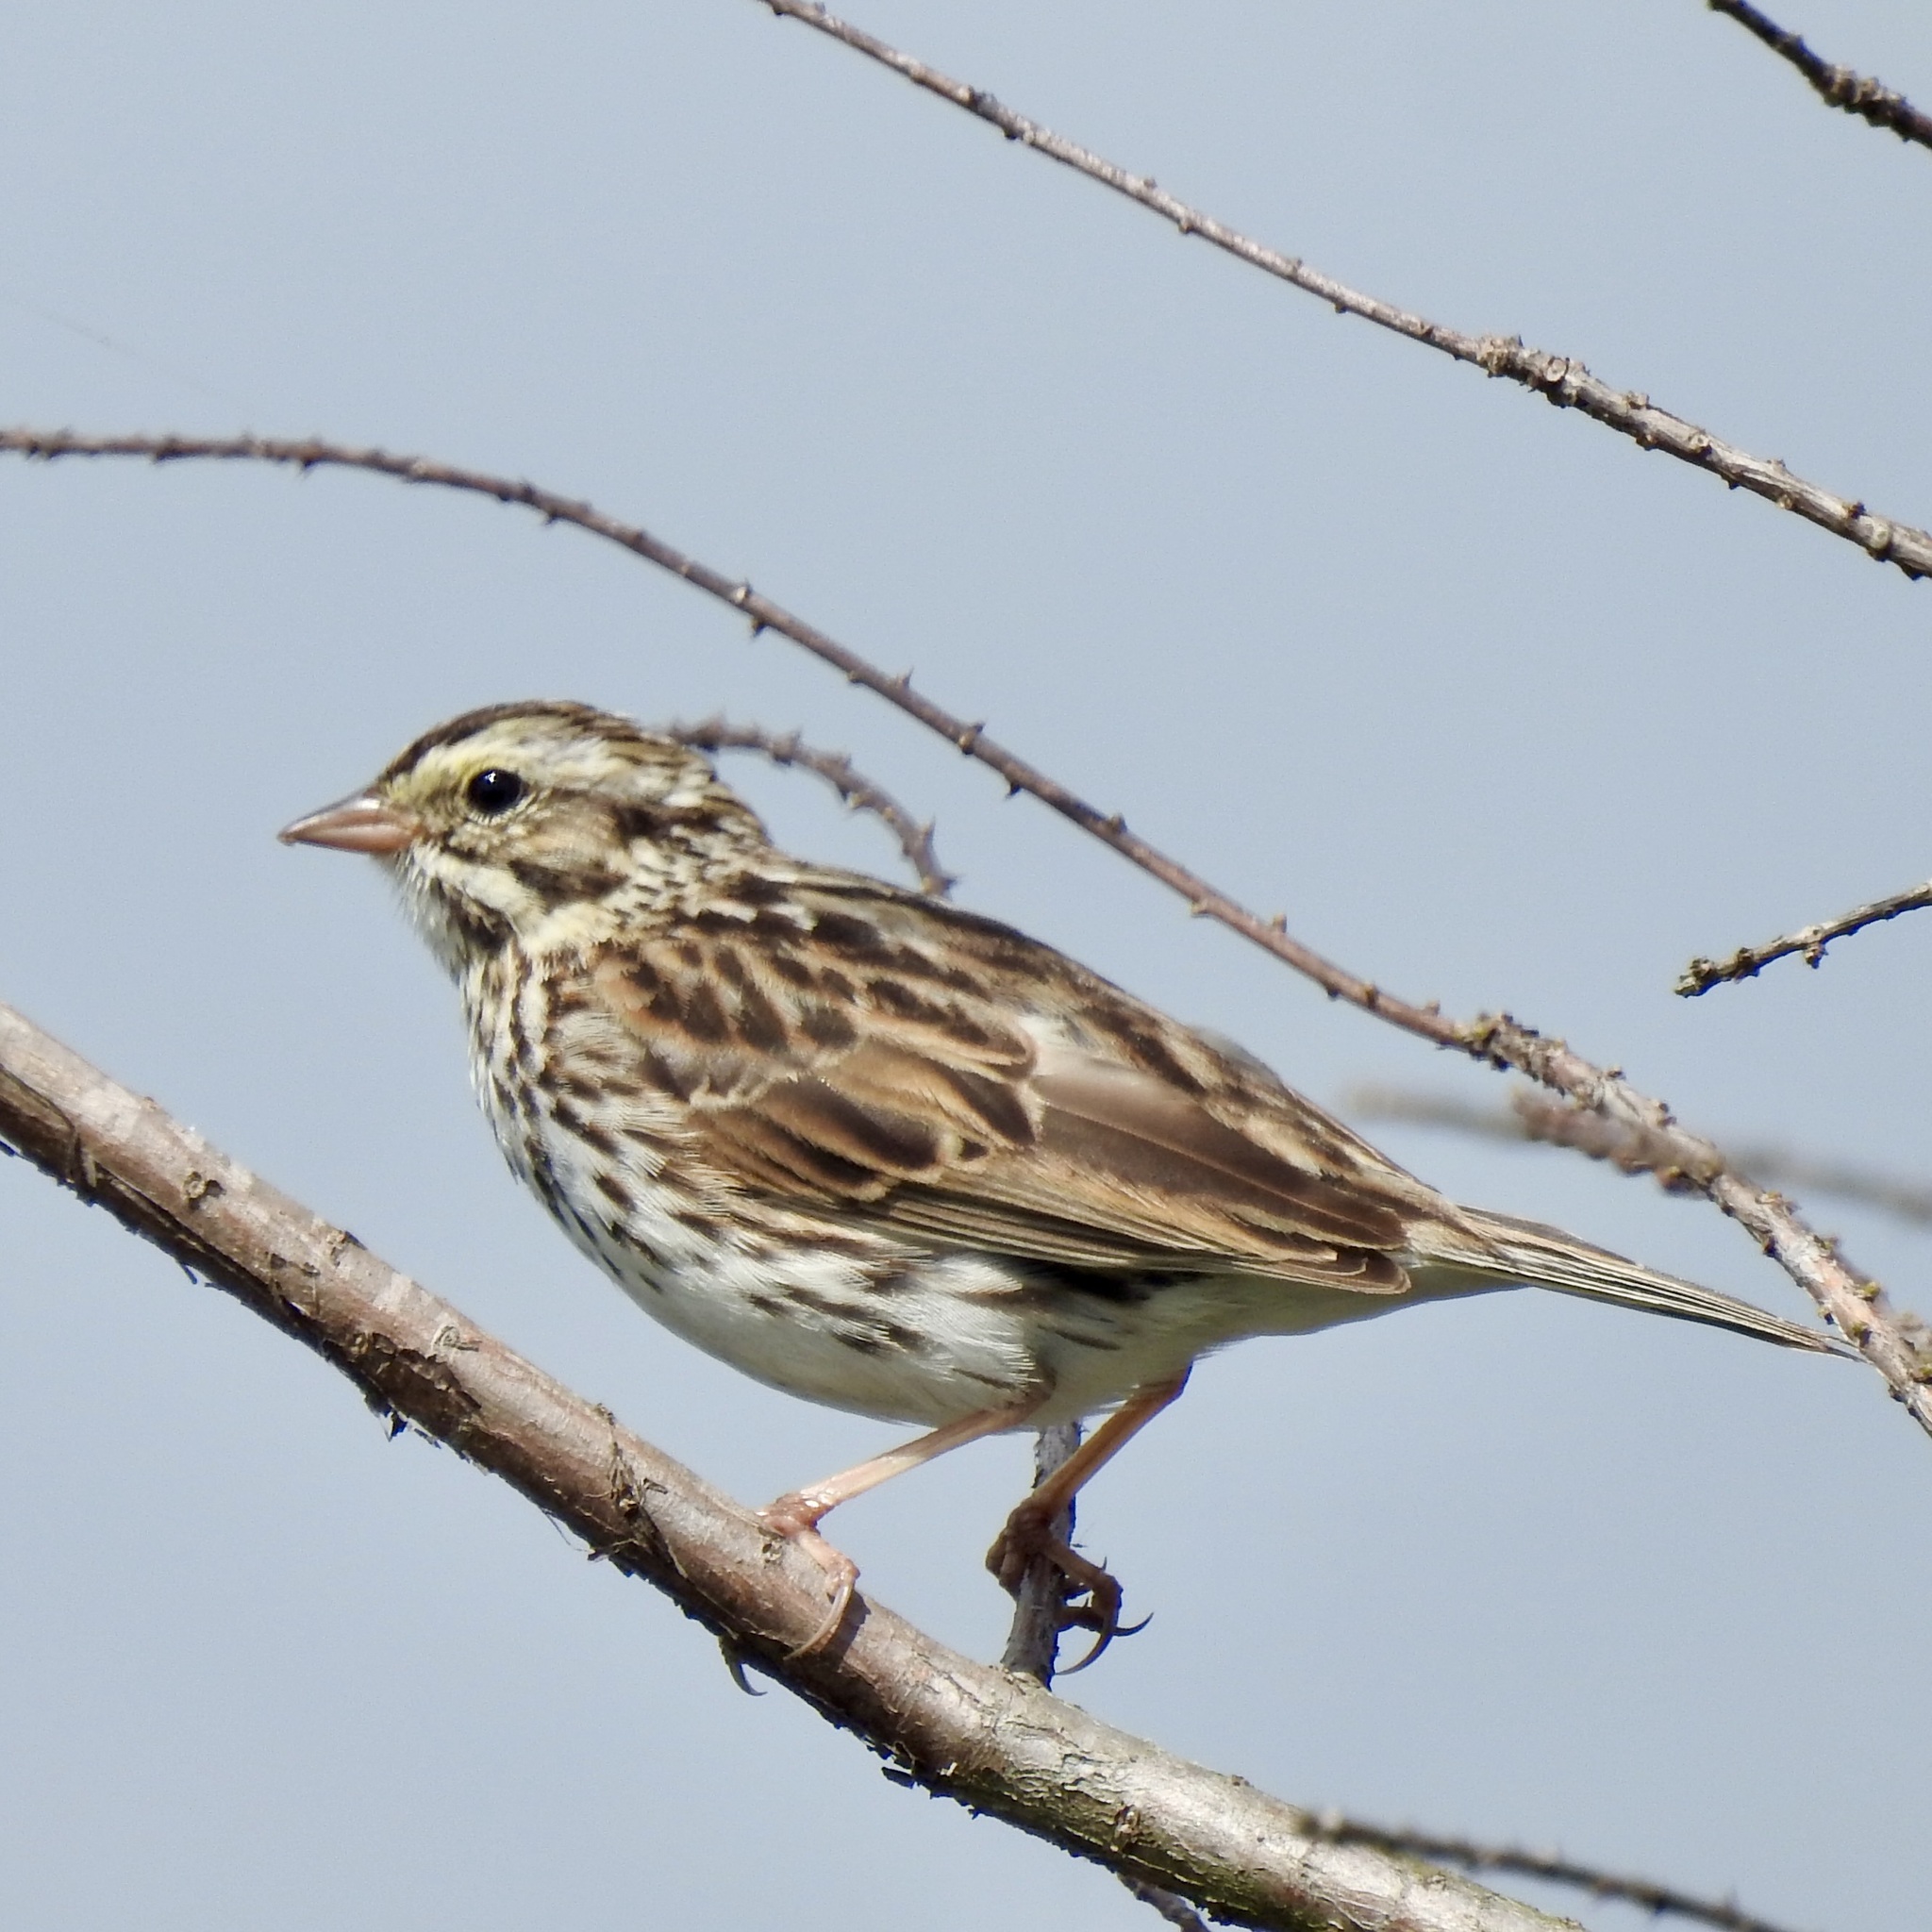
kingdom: Animalia
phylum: Chordata
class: Aves
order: Passeriformes
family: Passerellidae
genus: Passerculus
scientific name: Passerculus sandwichensis
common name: Savannah sparrow
